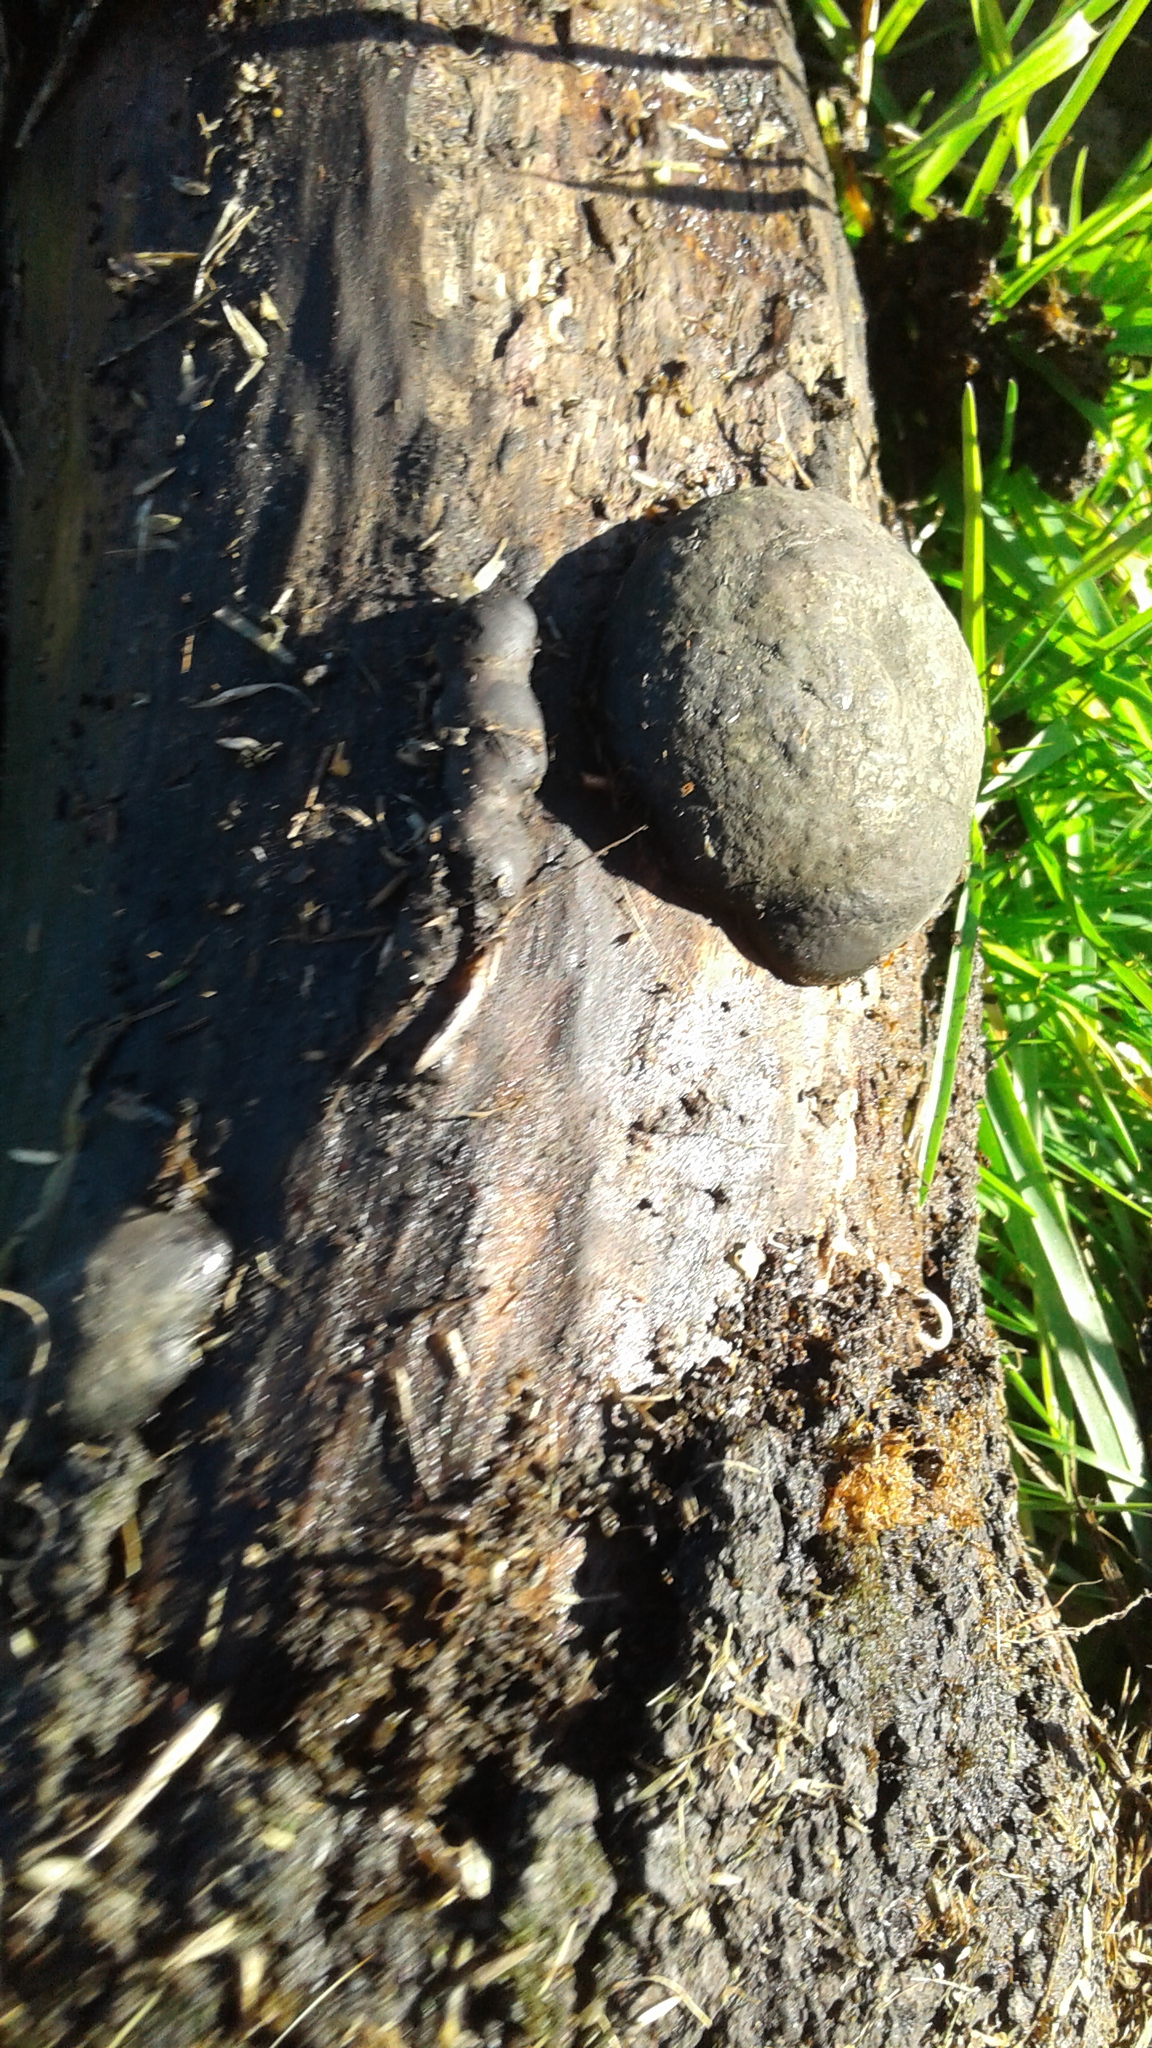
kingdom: Fungi
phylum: Ascomycota
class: Sordariomycetes
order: Xylariales
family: Hypoxylaceae
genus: Daldinia
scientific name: Daldinia
